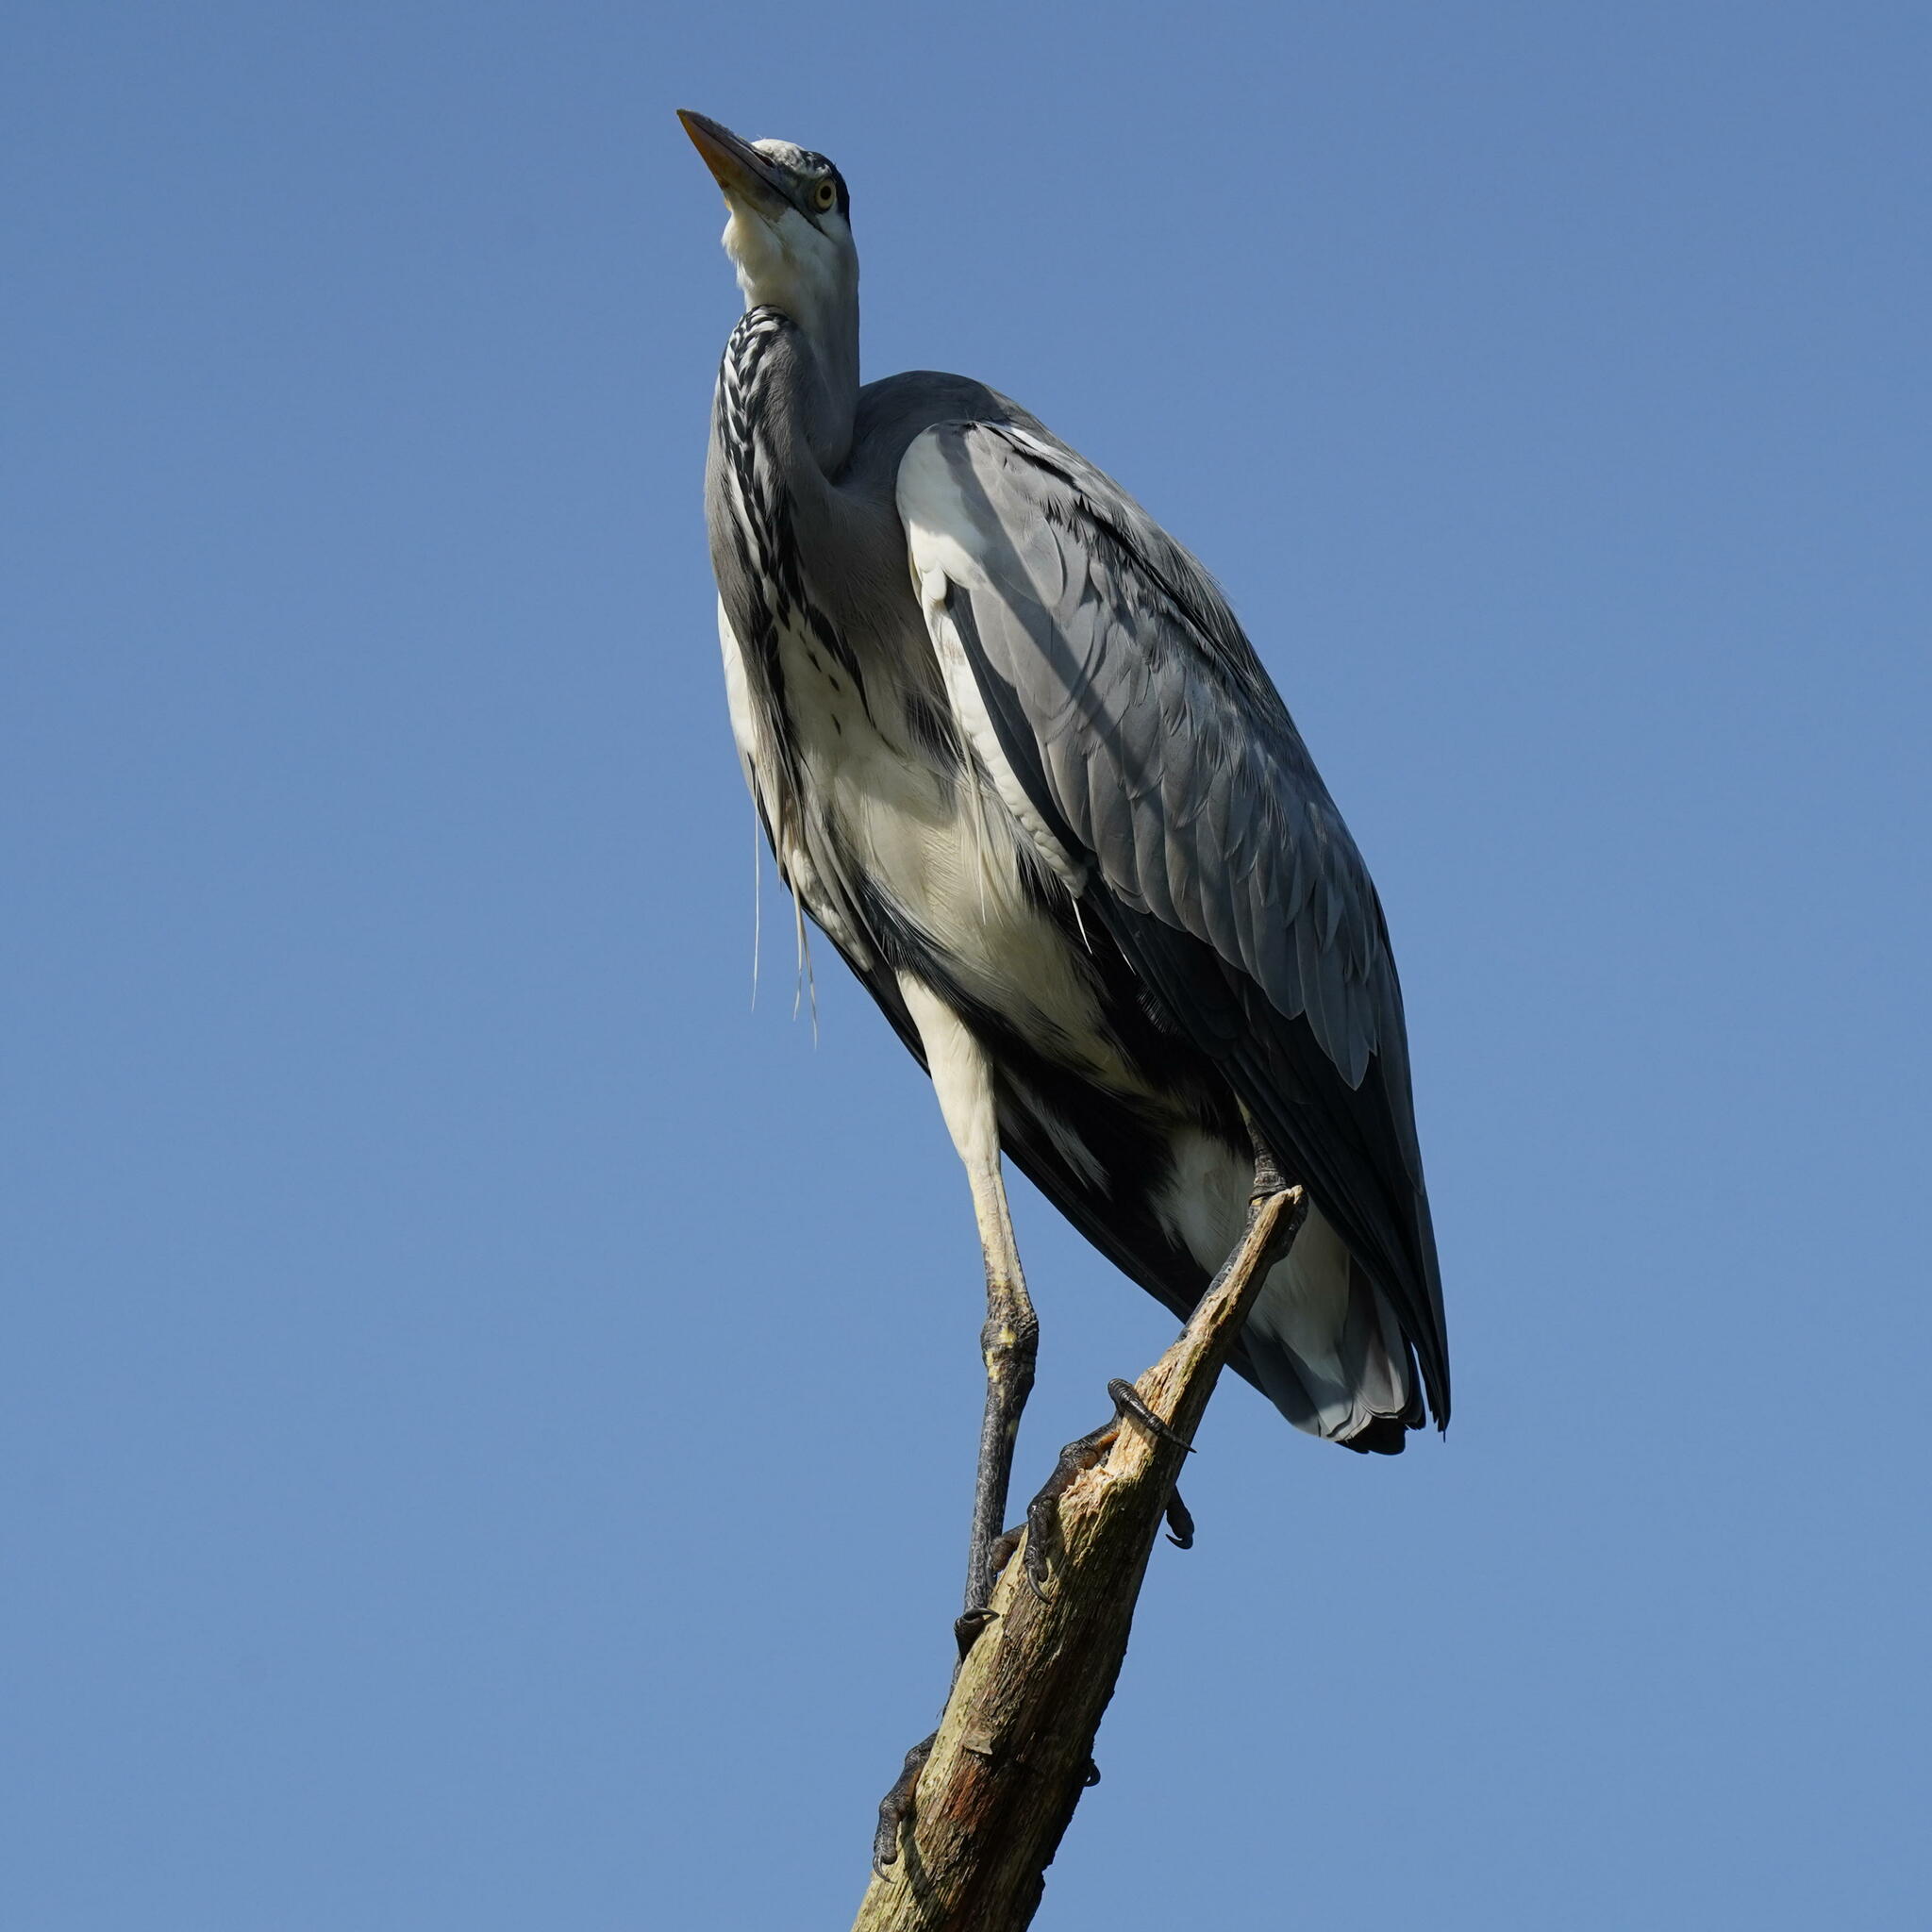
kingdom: Animalia
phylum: Chordata
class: Aves
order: Pelecaniformes
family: Ardeidae
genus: Ardea
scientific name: Ardea cinerea
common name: Grey heron
